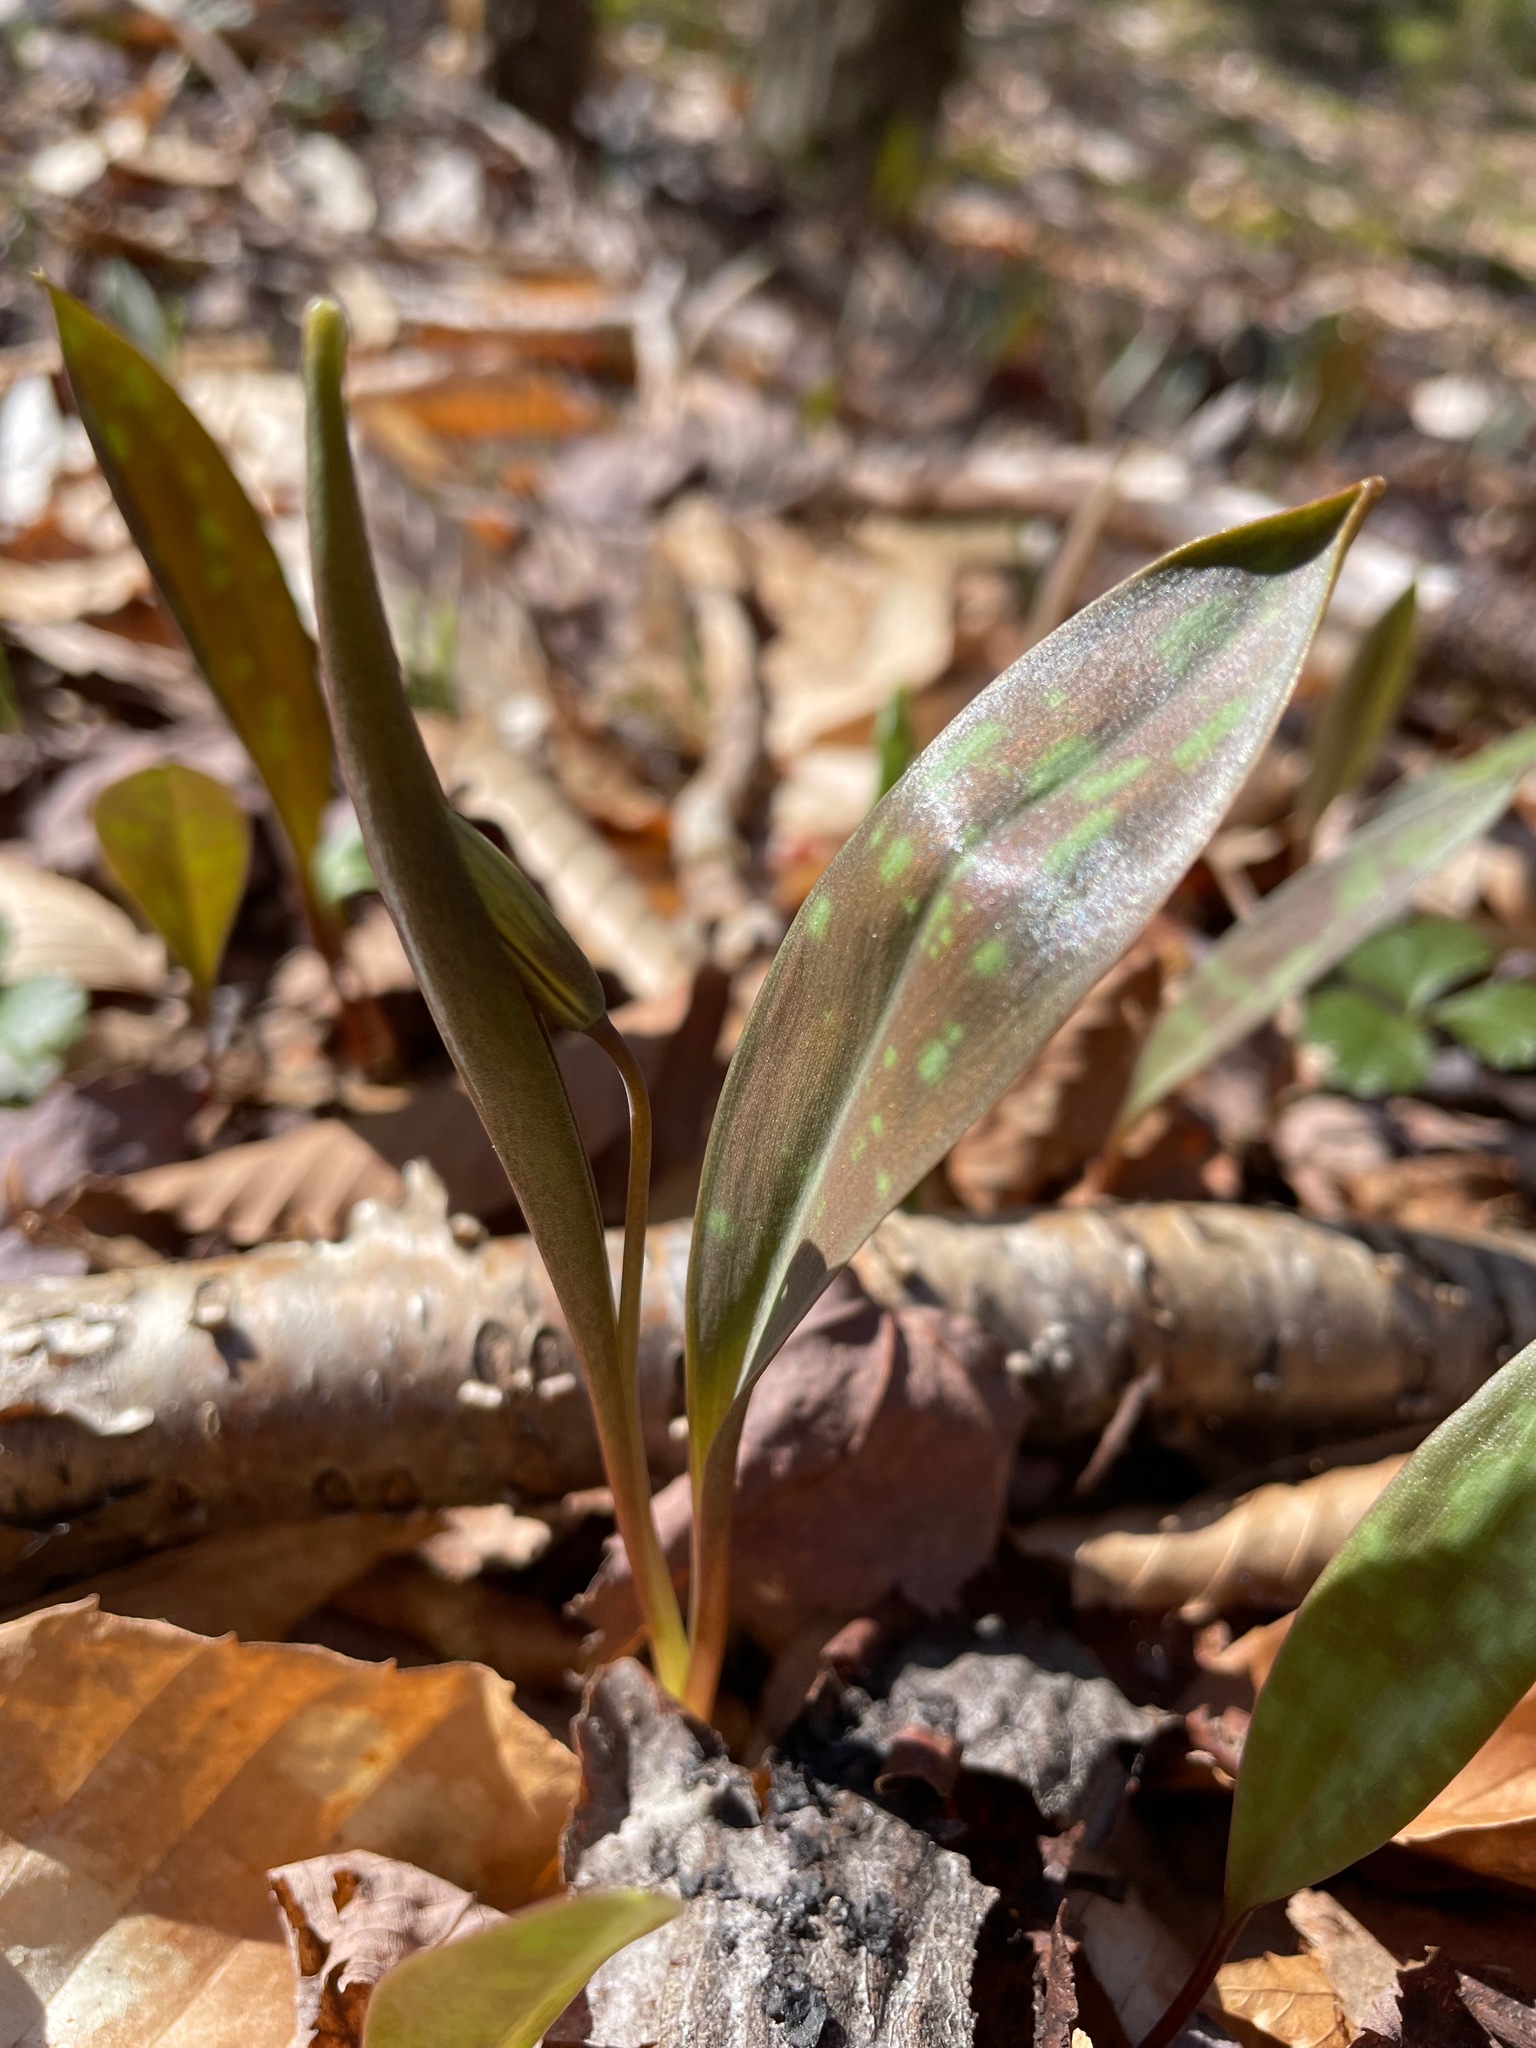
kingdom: Plantae
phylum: Tracheophyta
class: Liliopsida
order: Liliales
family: Liliaceae
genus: Erythronium
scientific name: Erythronium americanum
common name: Yellow adder's-tongue
